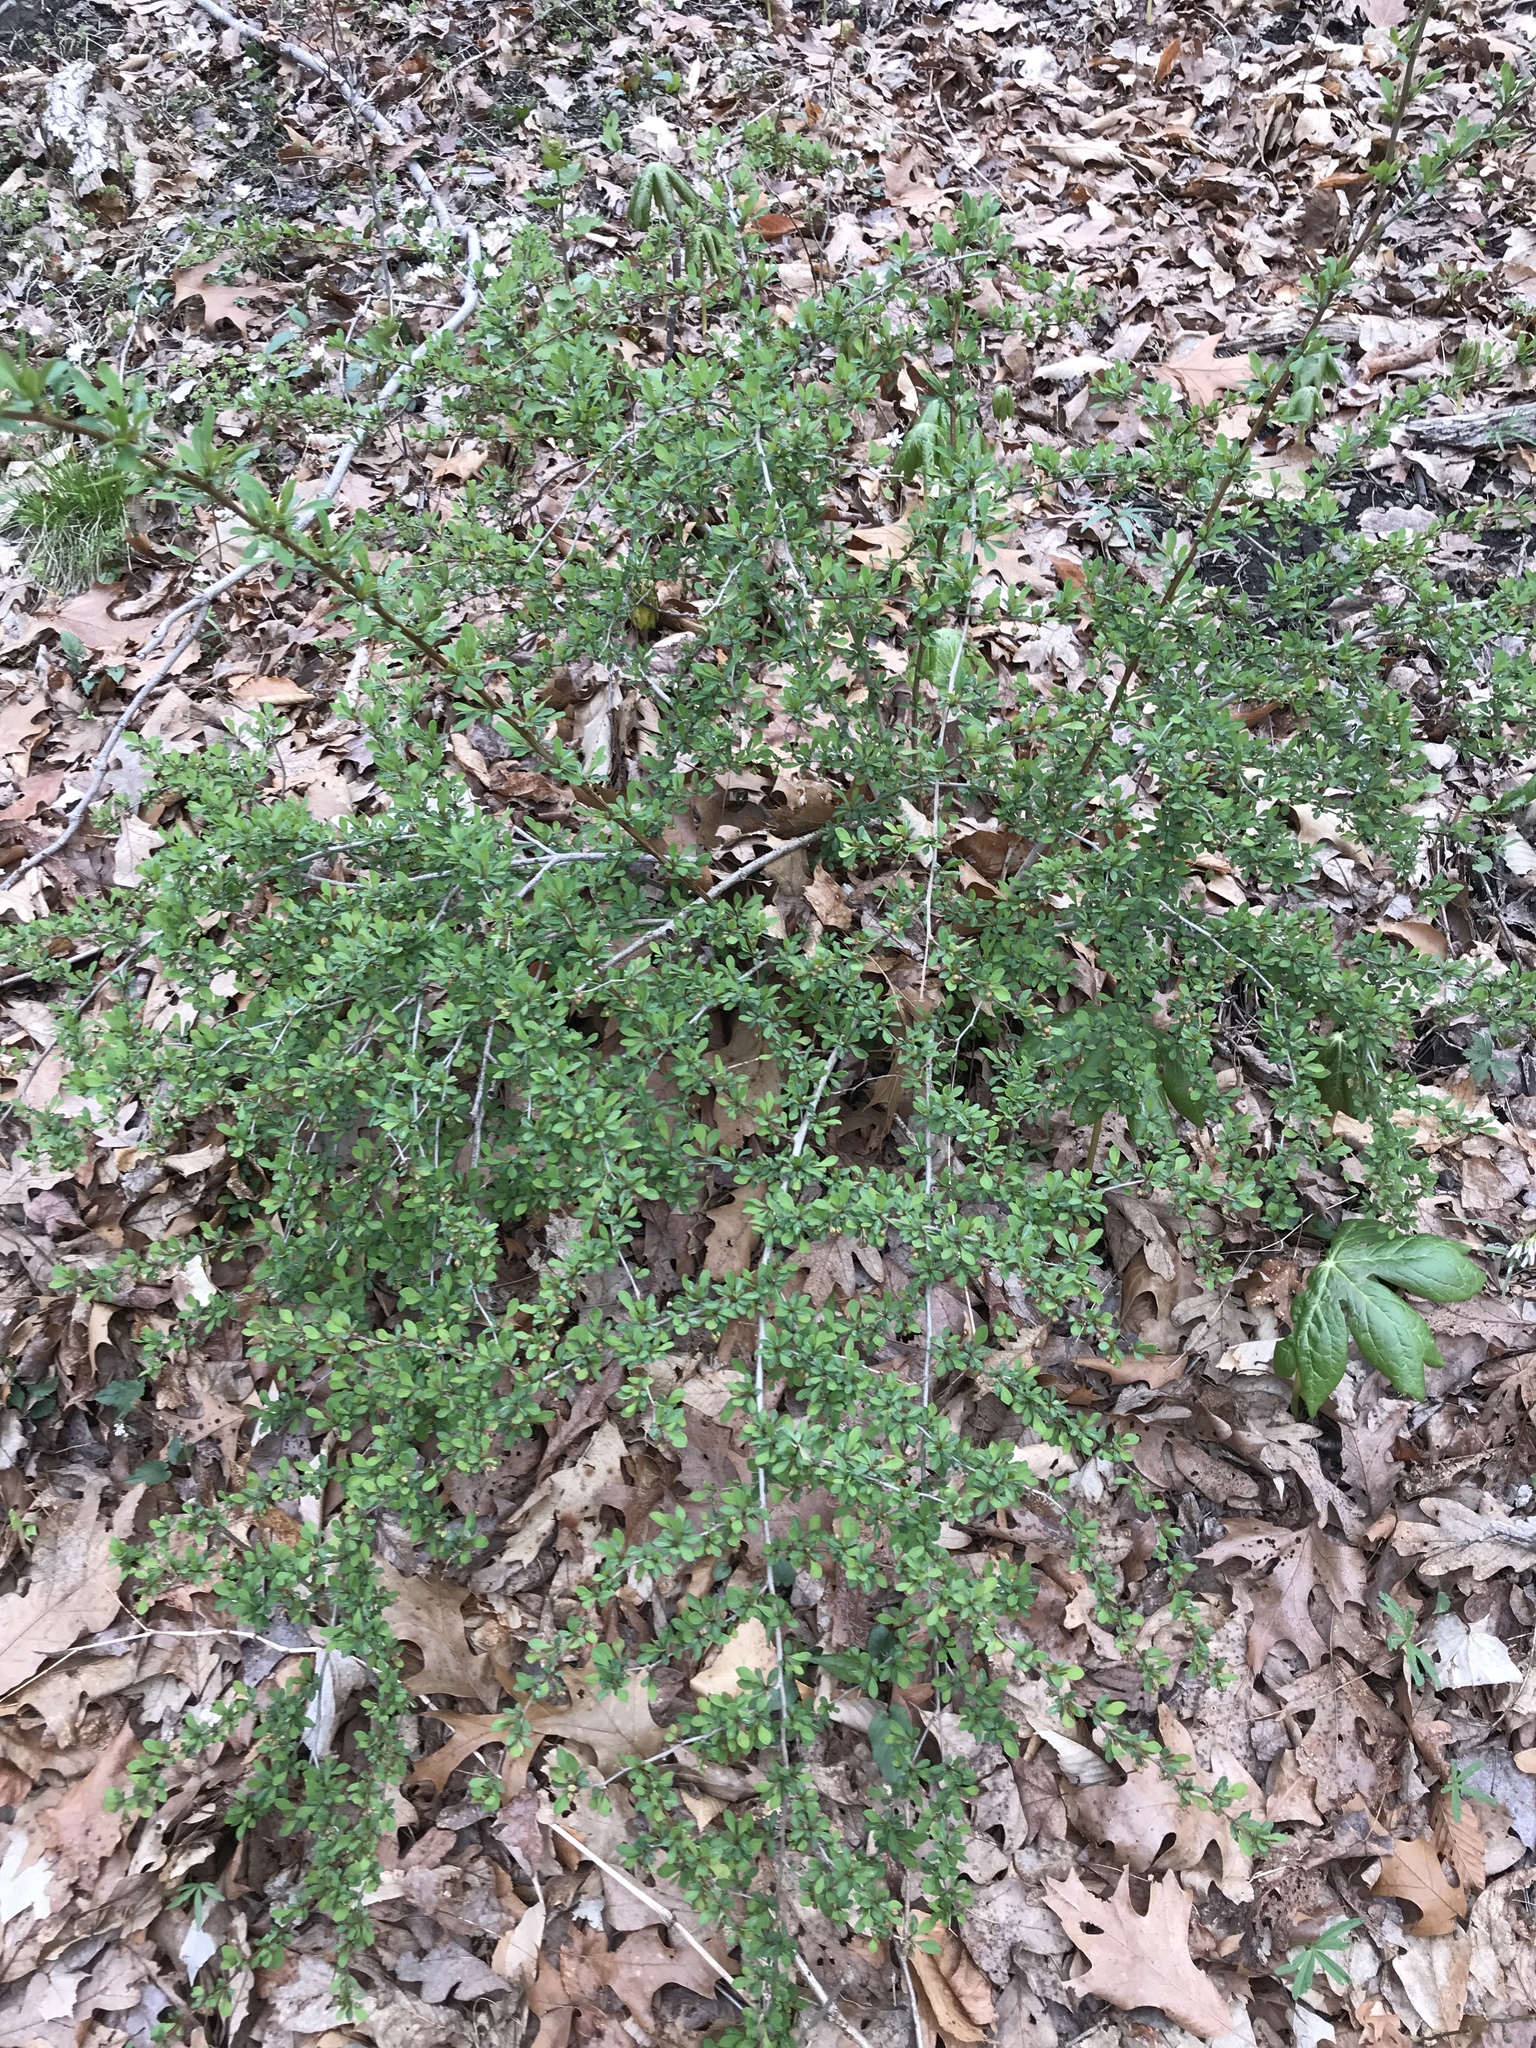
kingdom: Plantae
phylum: Tracheophyta
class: Magnoliopsida
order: Ranunculales
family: Berberidaceae
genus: Berberis
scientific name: Berberis thunbergii
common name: Japanese barberry
